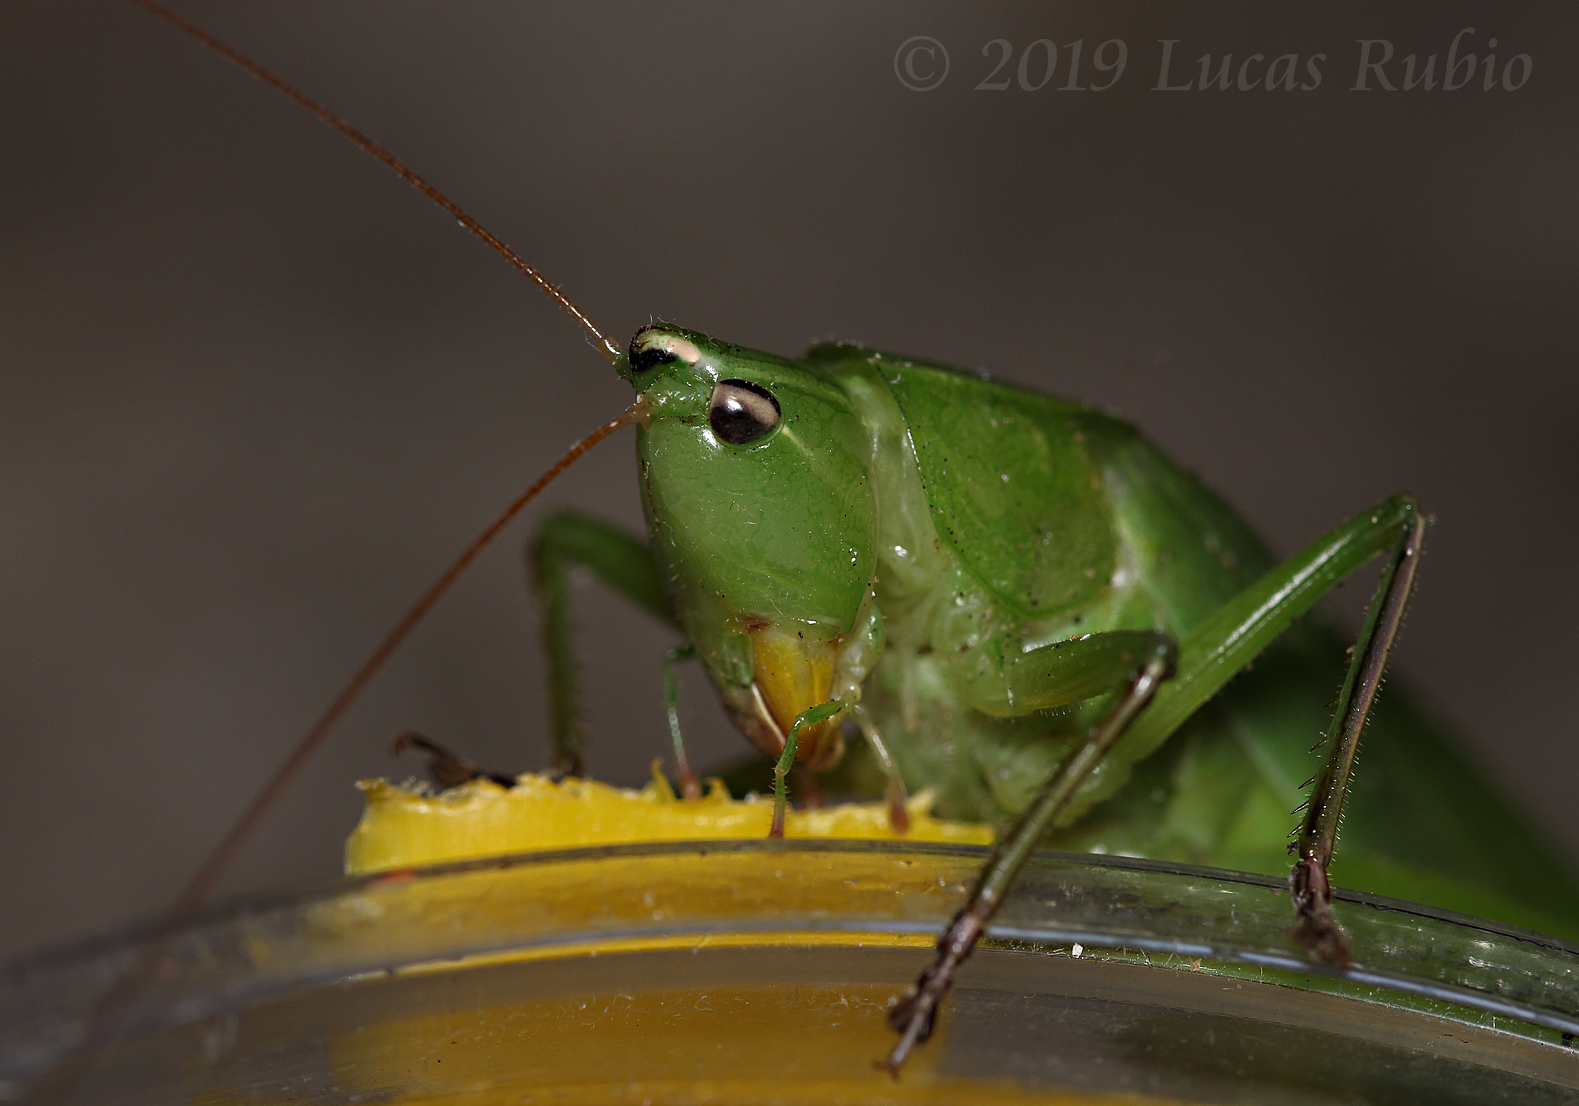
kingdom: Animalia
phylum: Arthropoda
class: Insecta
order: Orthoptera
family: Tettigoniidae
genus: Neoconocephalus
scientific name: Neoconocephalus viridis
